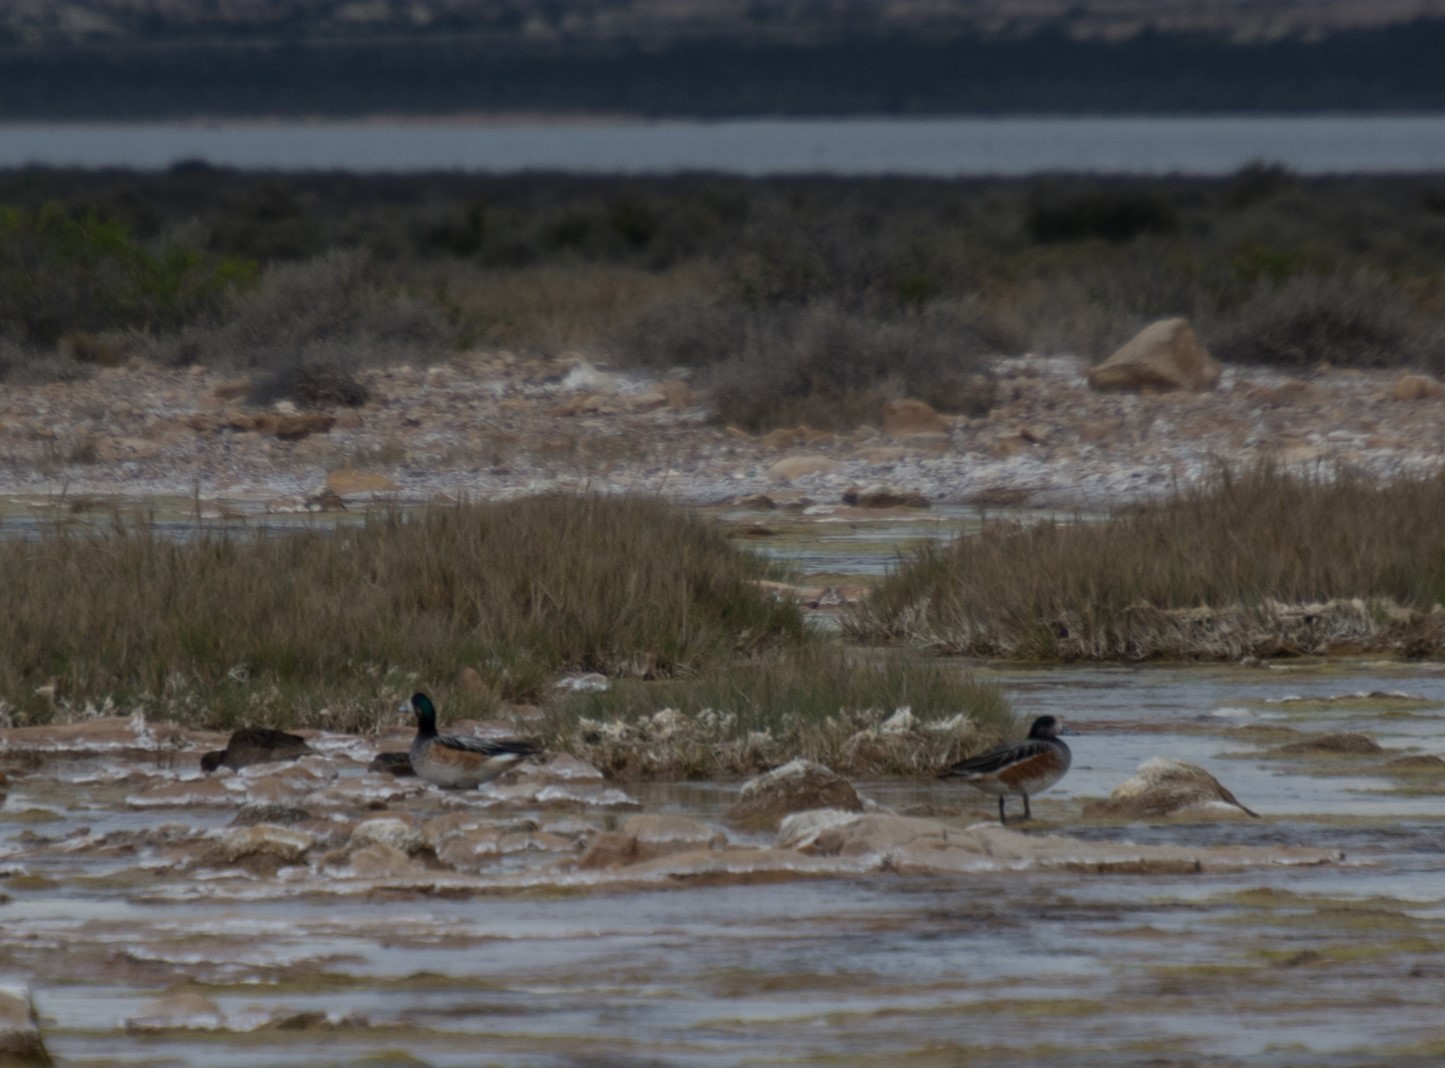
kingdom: Animalia
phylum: Chordata
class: Aves
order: Anseriformes
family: Anatidae
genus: Mareca
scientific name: Mareca sibilatrix
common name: Chiloe wigeon
